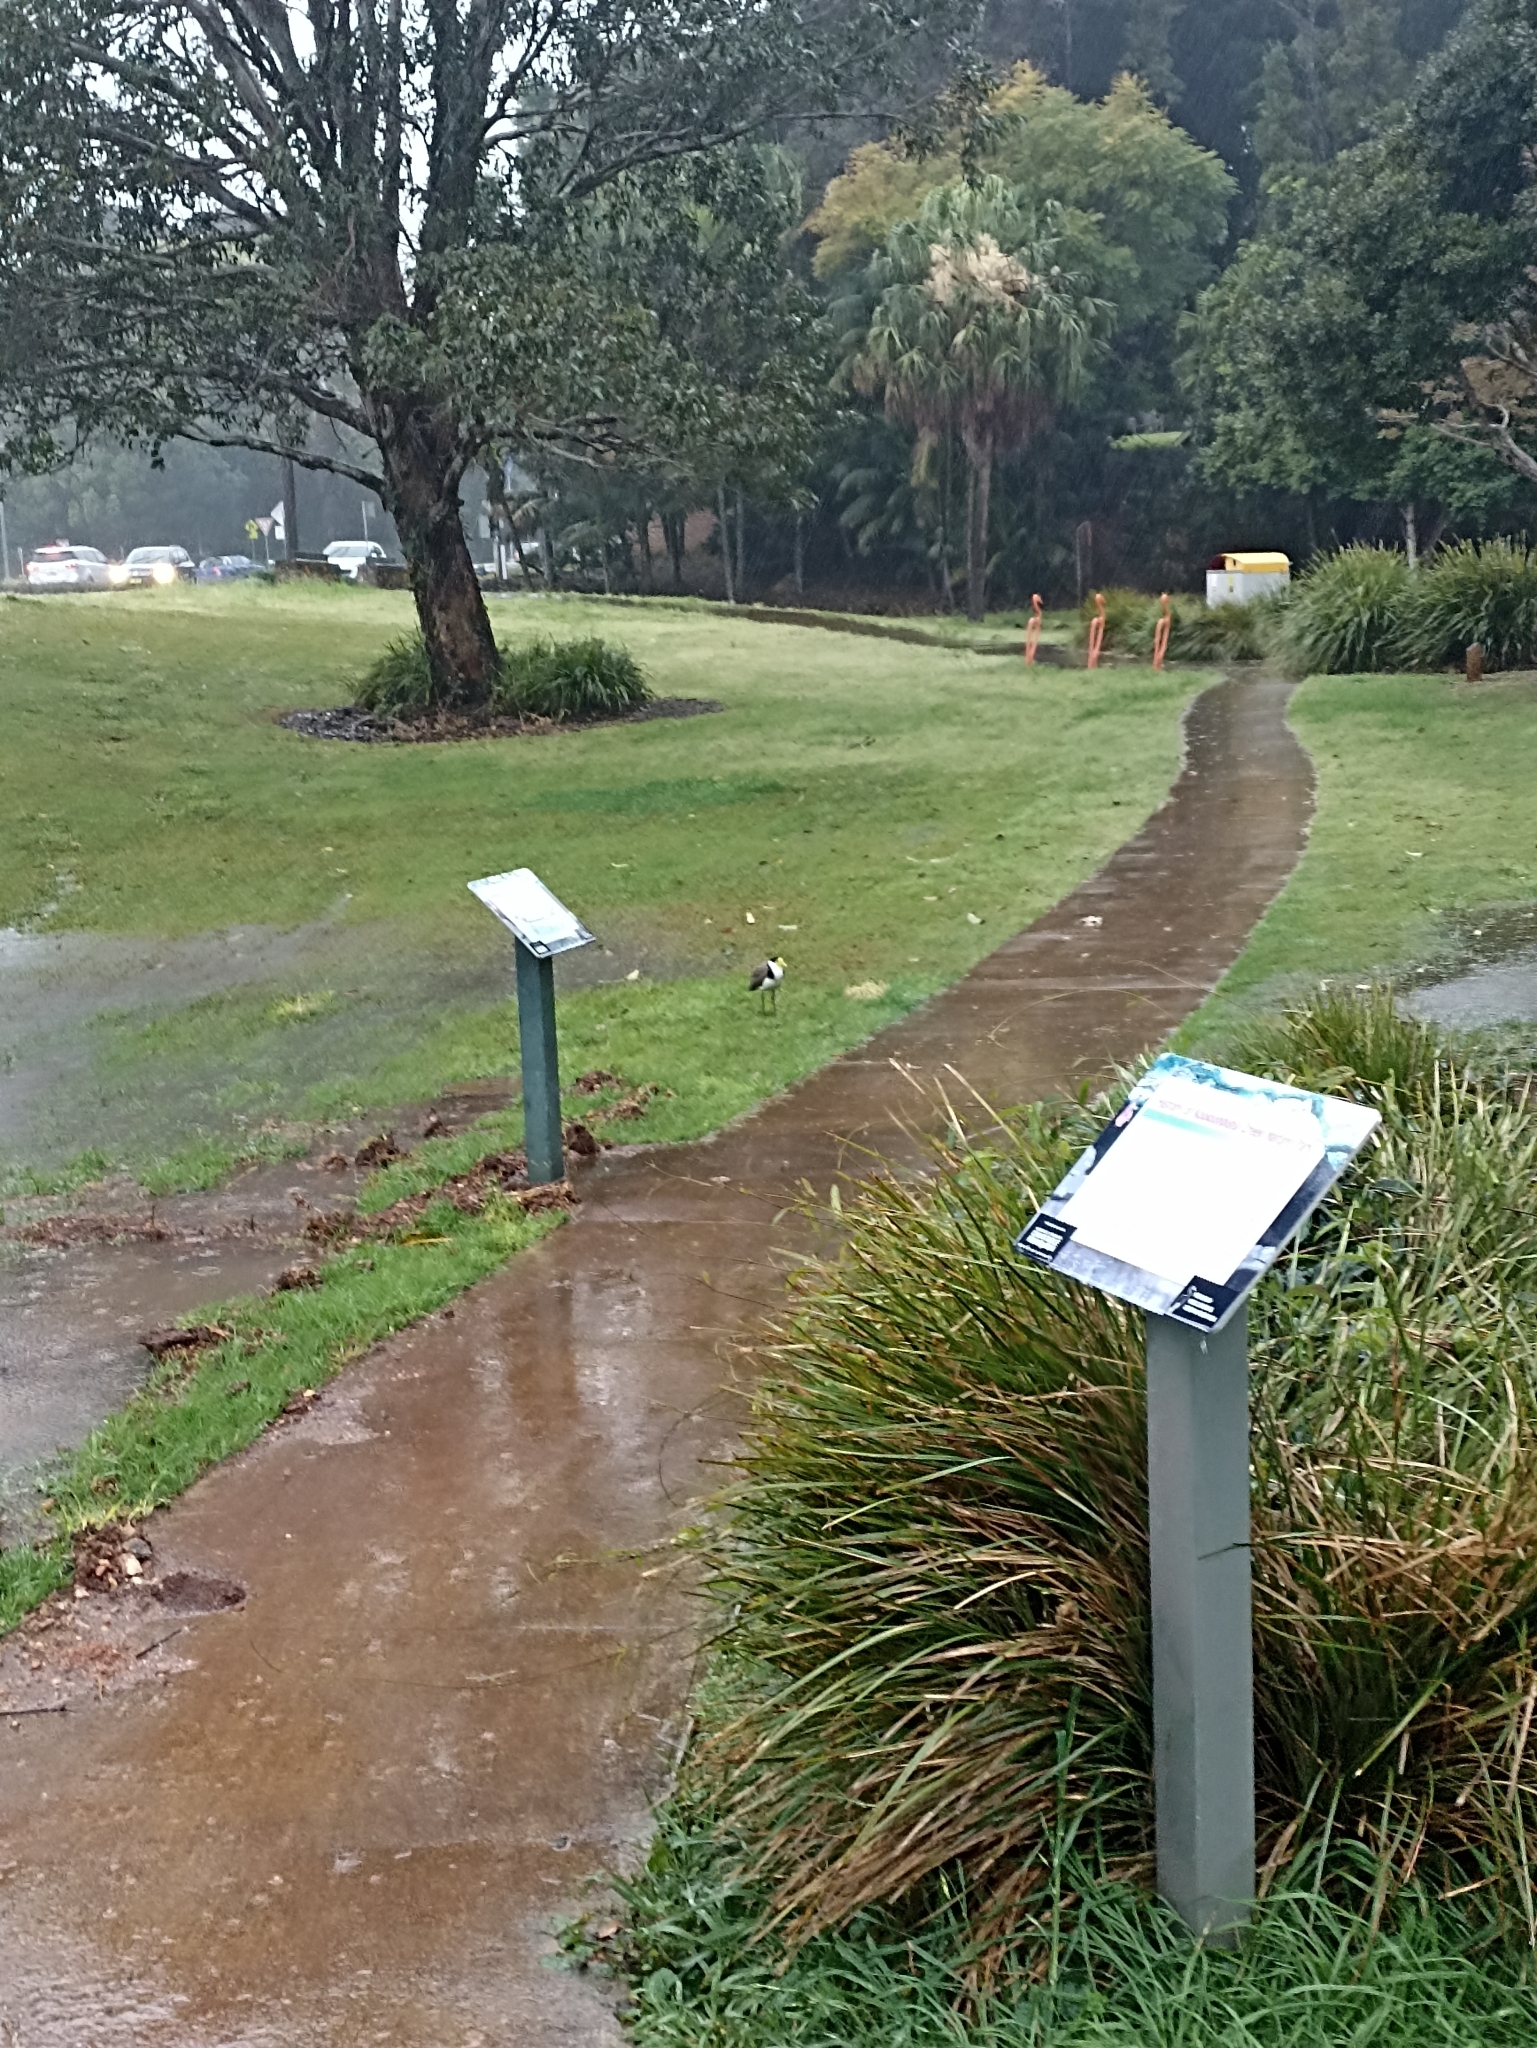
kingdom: Animalia
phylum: Chordata
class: Aves
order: Charadriiformes
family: Charadriidae
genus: Vanellus
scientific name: Vanellus miles
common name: Masked lapwing
